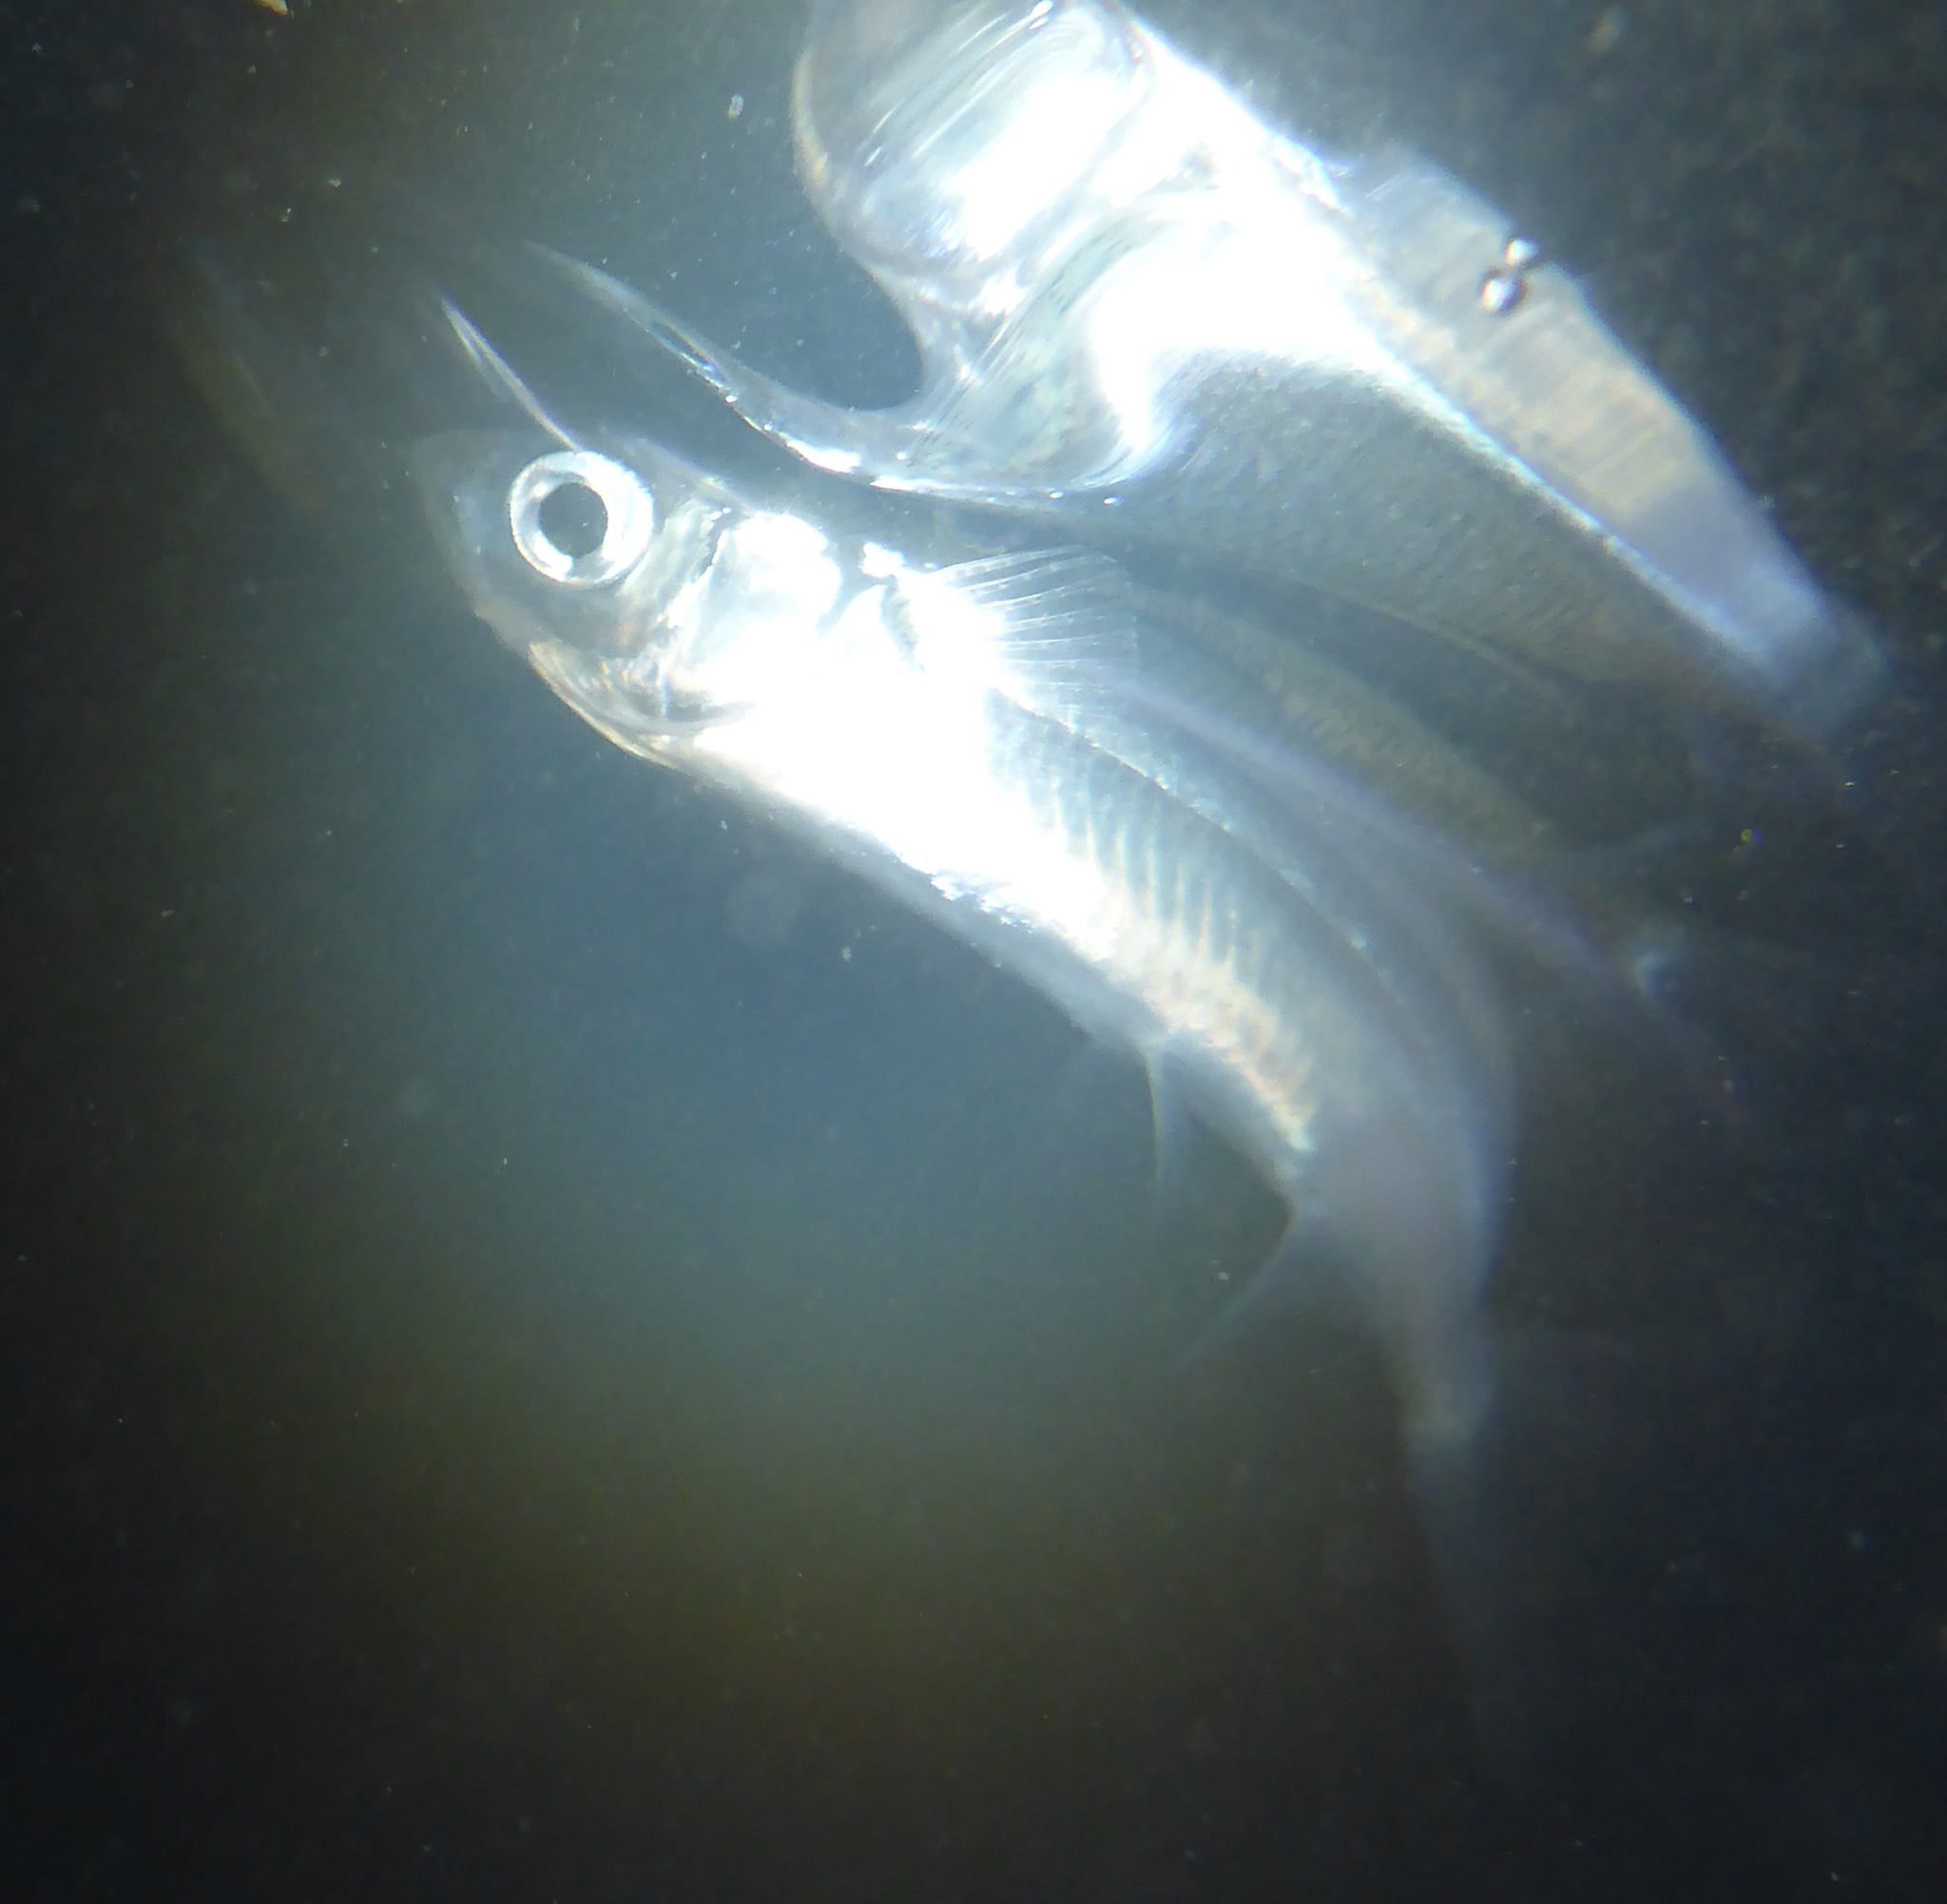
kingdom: Animalia
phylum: Chordata
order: Atheriniformes
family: Atherinopsidae
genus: Atherinops
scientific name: Atherinops affinis
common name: Topsmelt
